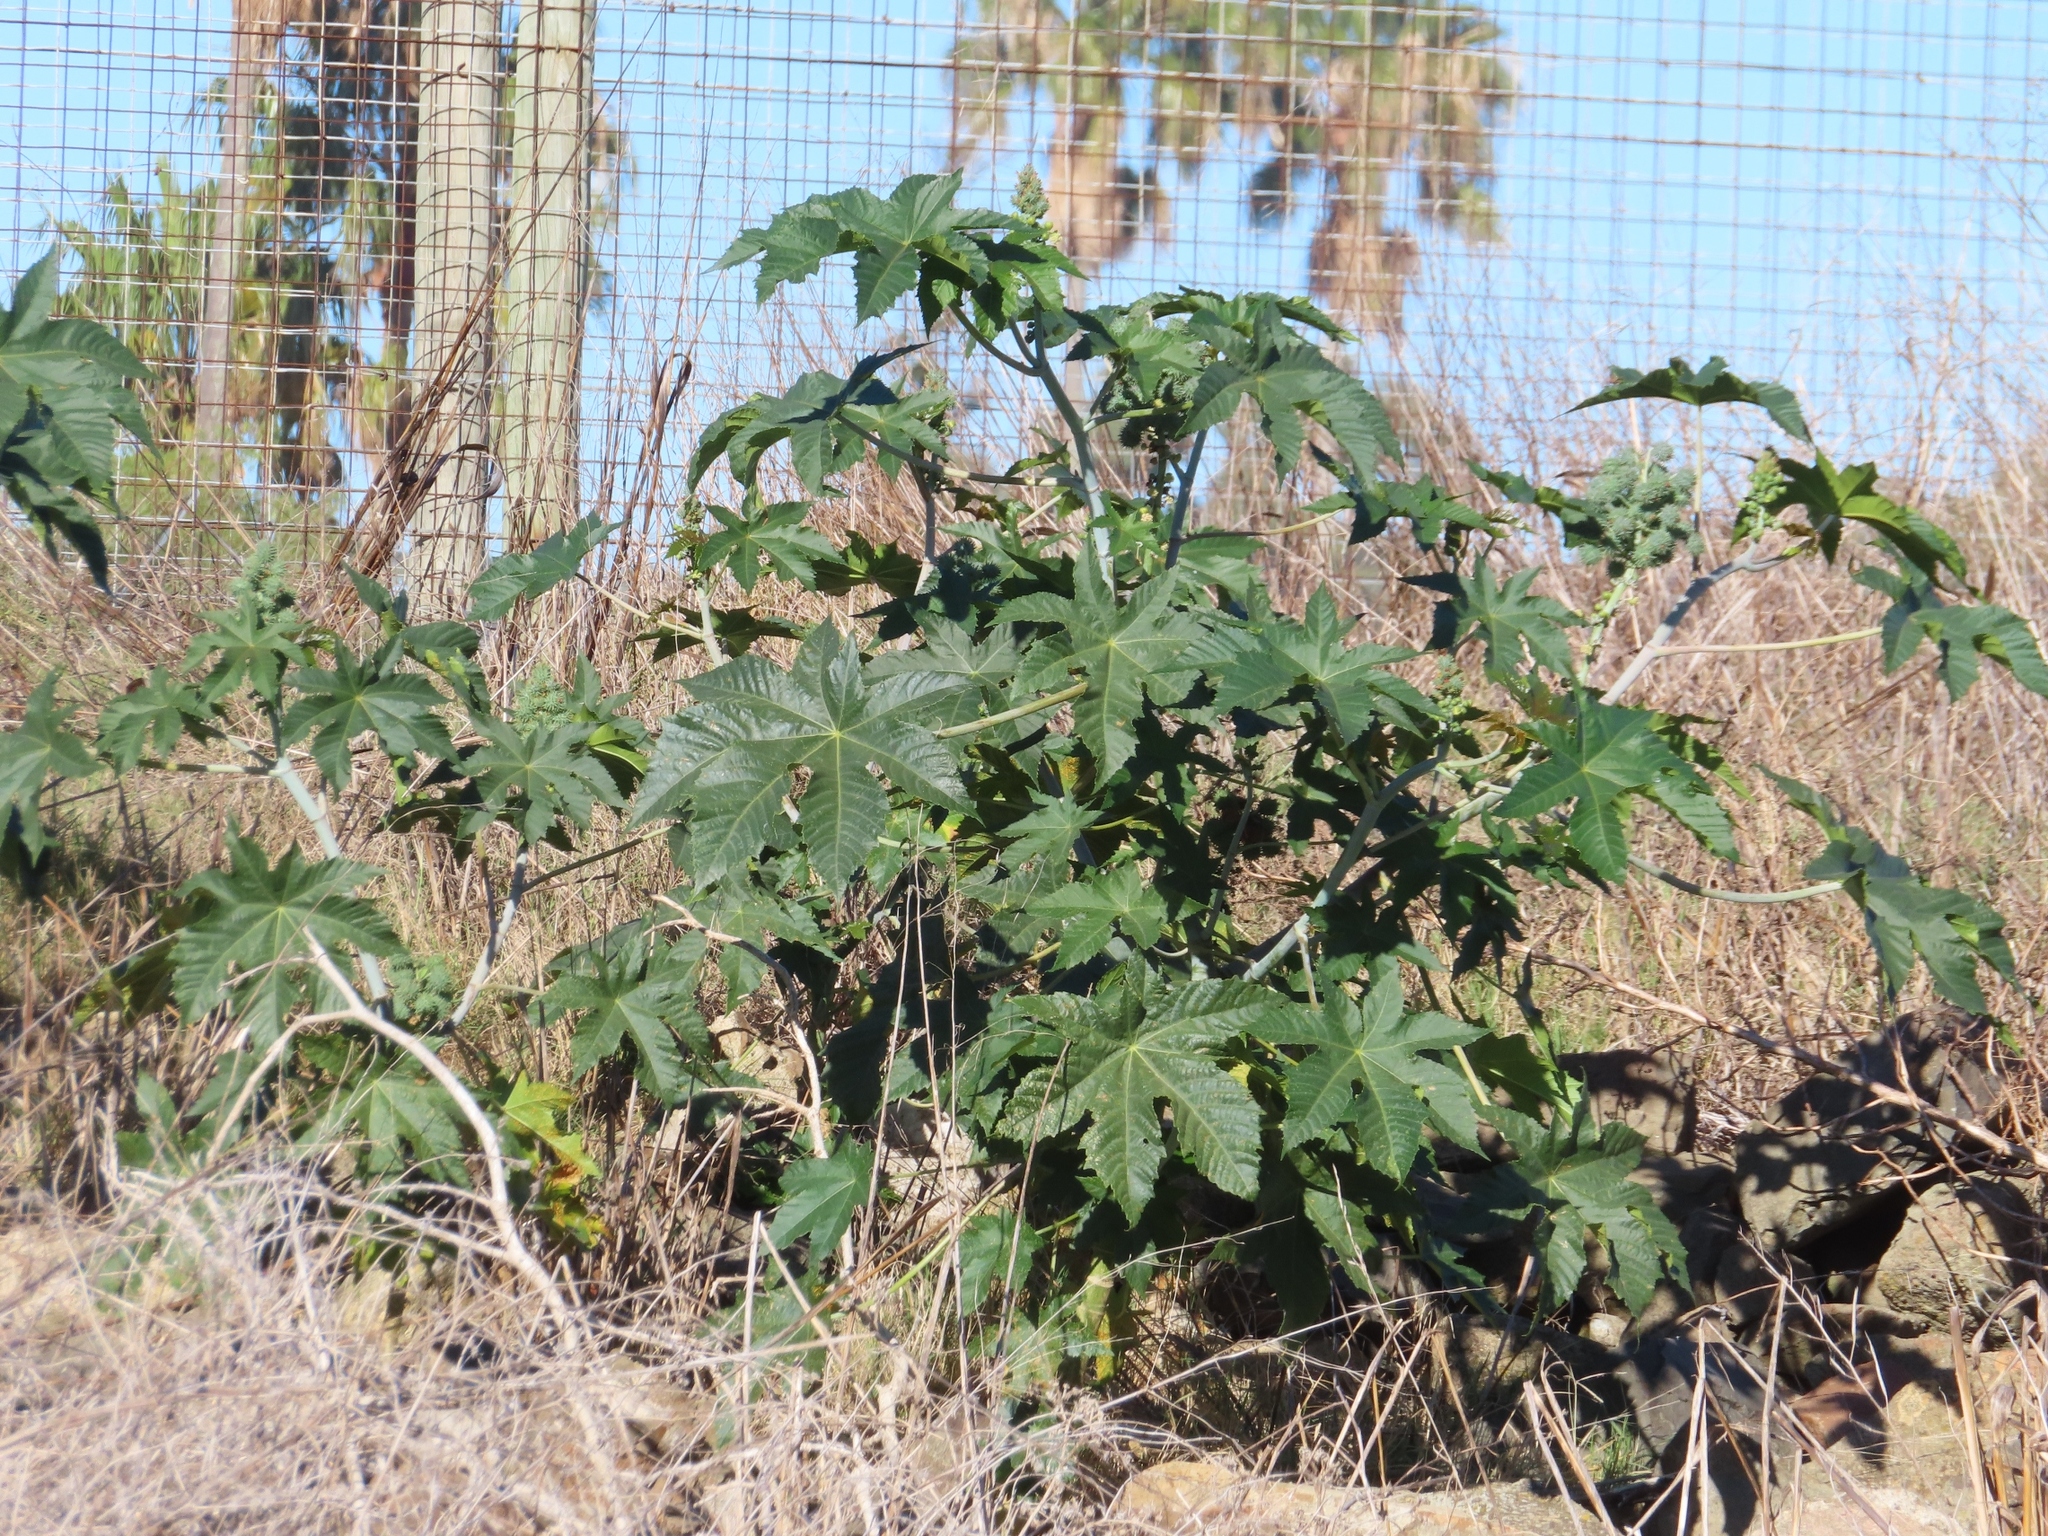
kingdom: Plantae
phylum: Tracheophyta
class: Magnoliopsida
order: Malpighiales
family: Euphorbiaceae
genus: Ricinus
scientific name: Ricinus communis
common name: Castor-oil-plant
